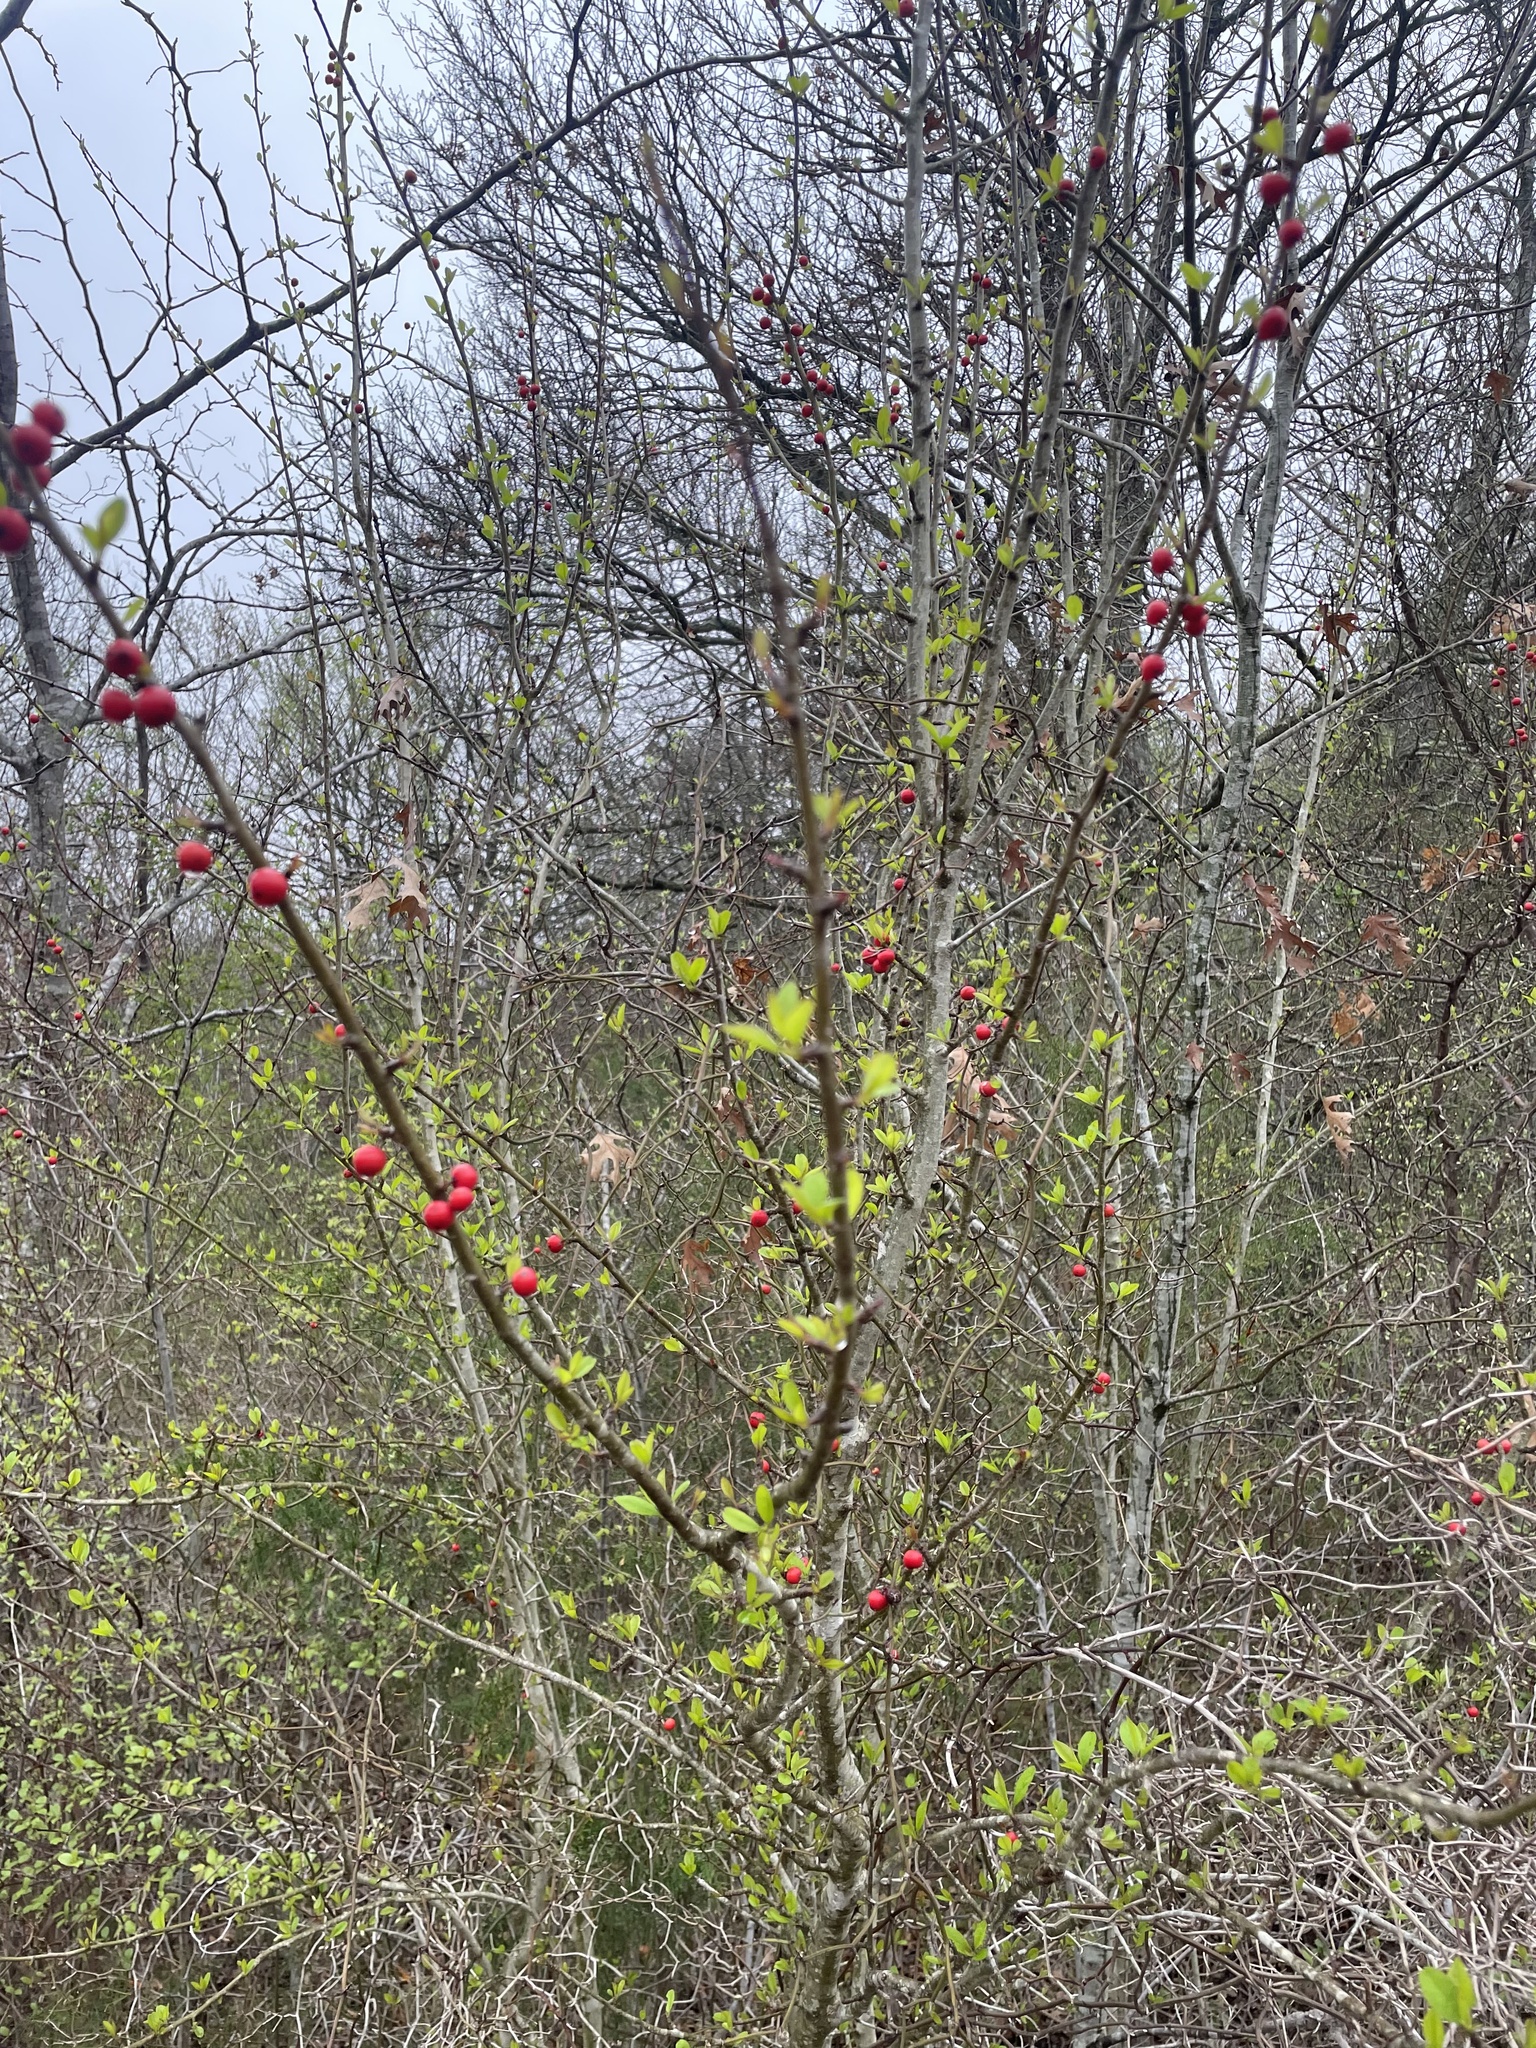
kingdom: Plantae
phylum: Tracheophyta
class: Magnoliopsida
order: Aquifoliales
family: Aquifoliaceae
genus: Ilex
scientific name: Ilex decidua
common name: Possum-haw
